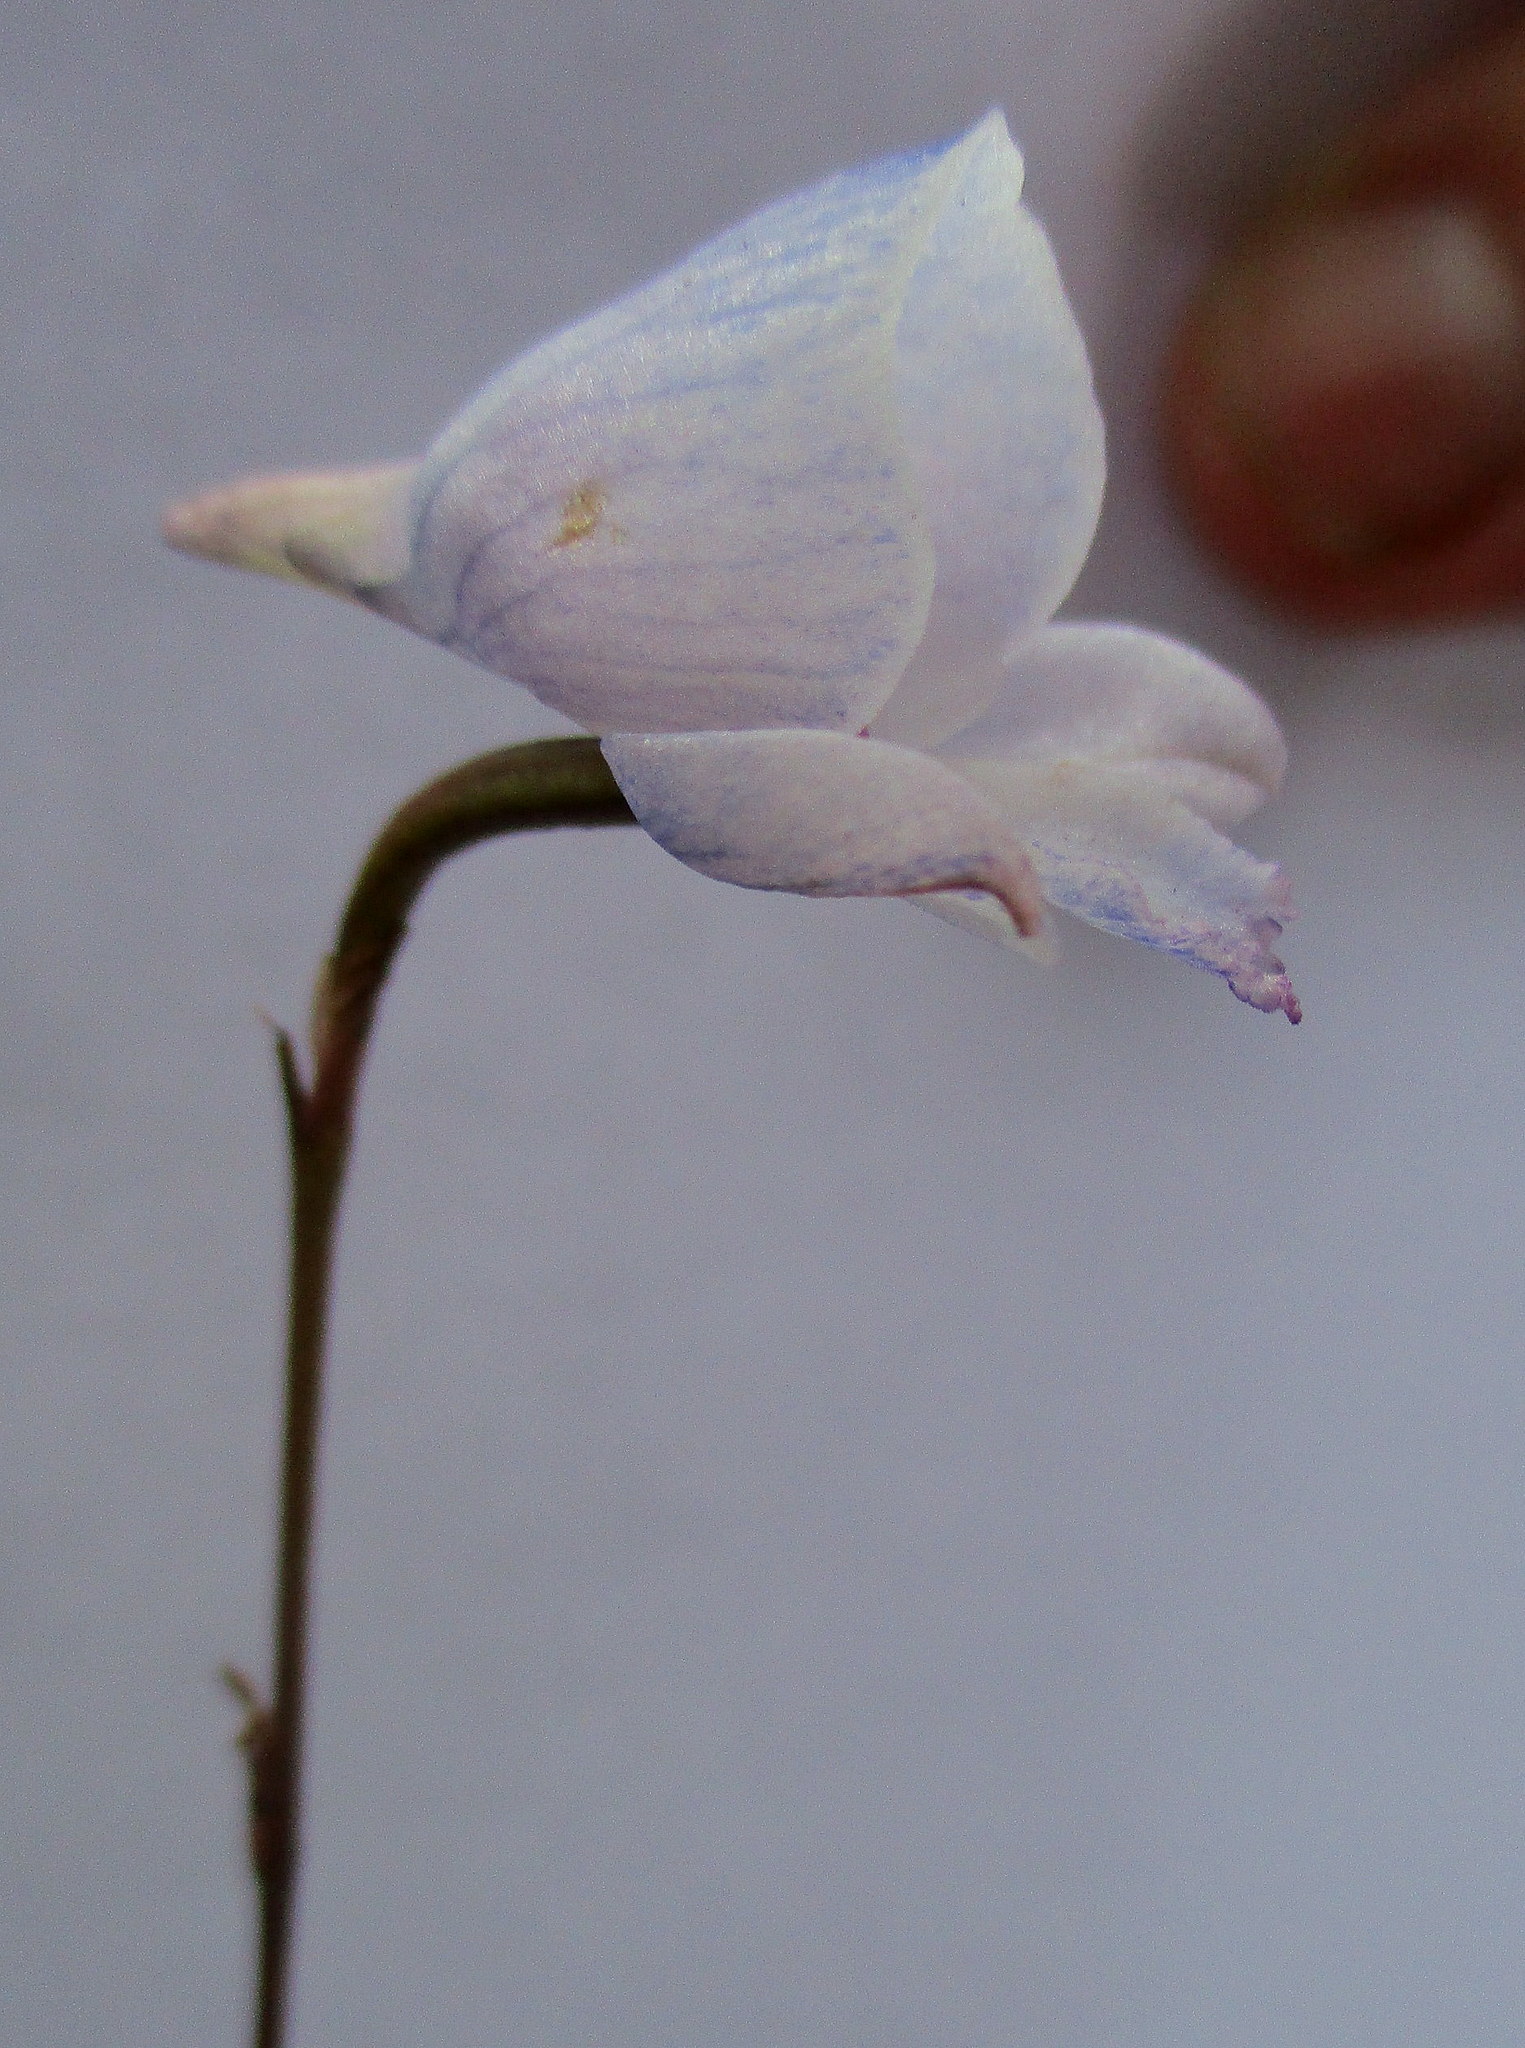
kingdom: Plantae
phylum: Tracheophyta
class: Liliopsida
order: Asparagales
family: Orchidaceae
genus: Disa
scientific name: Disa hians
